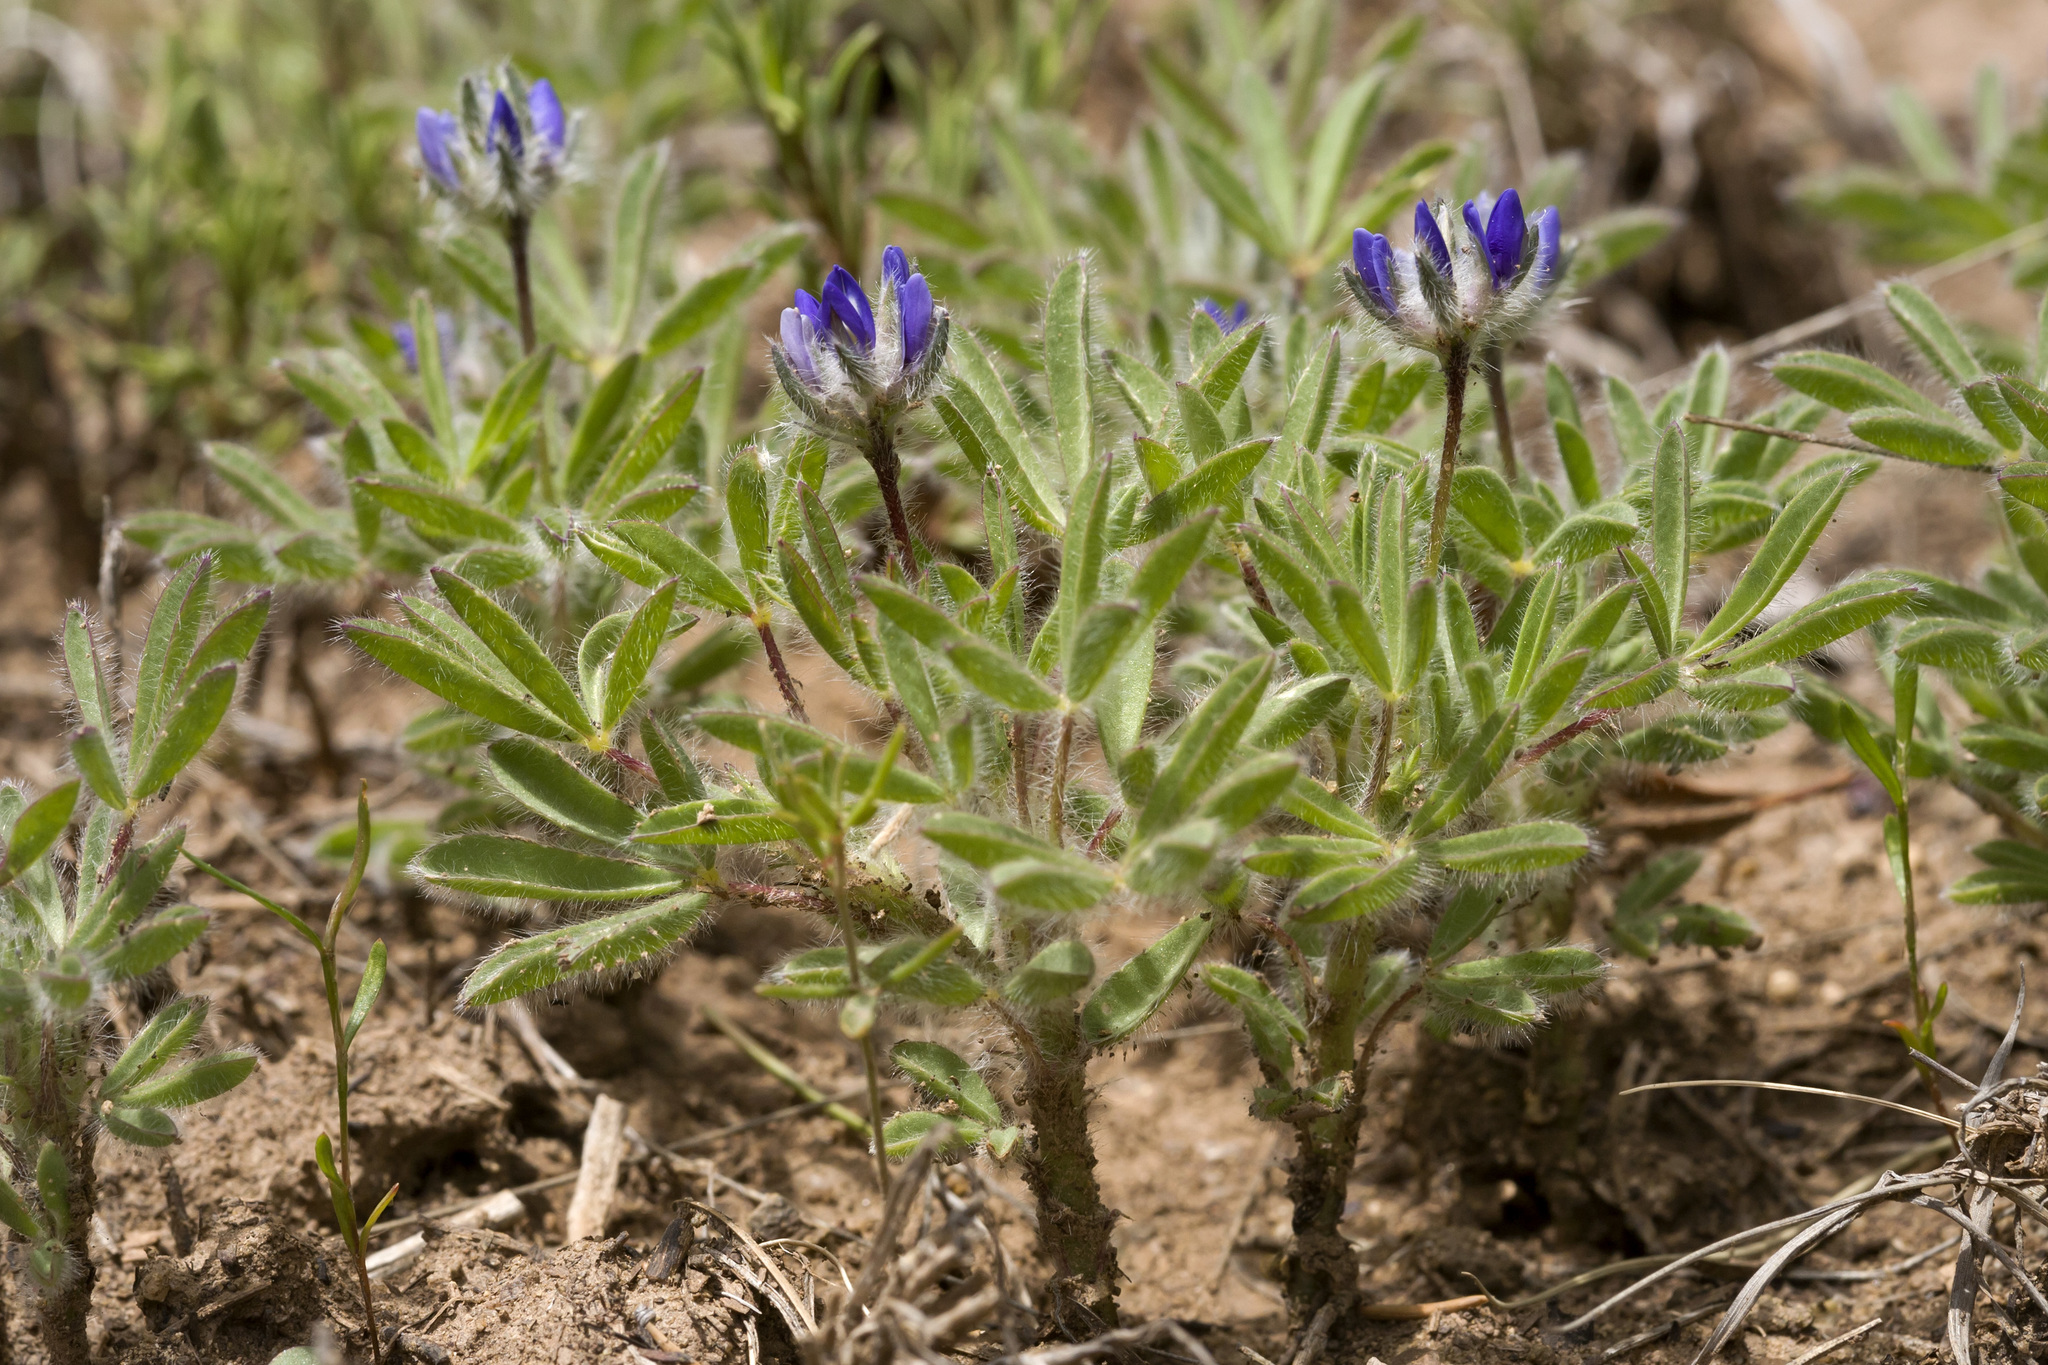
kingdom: Plantae
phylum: Tracheophyta
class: Magnoliopsida
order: Fabales
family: Fabaceae
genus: Lupinus
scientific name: Lupinus brevicaulis
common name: Sand lupine
